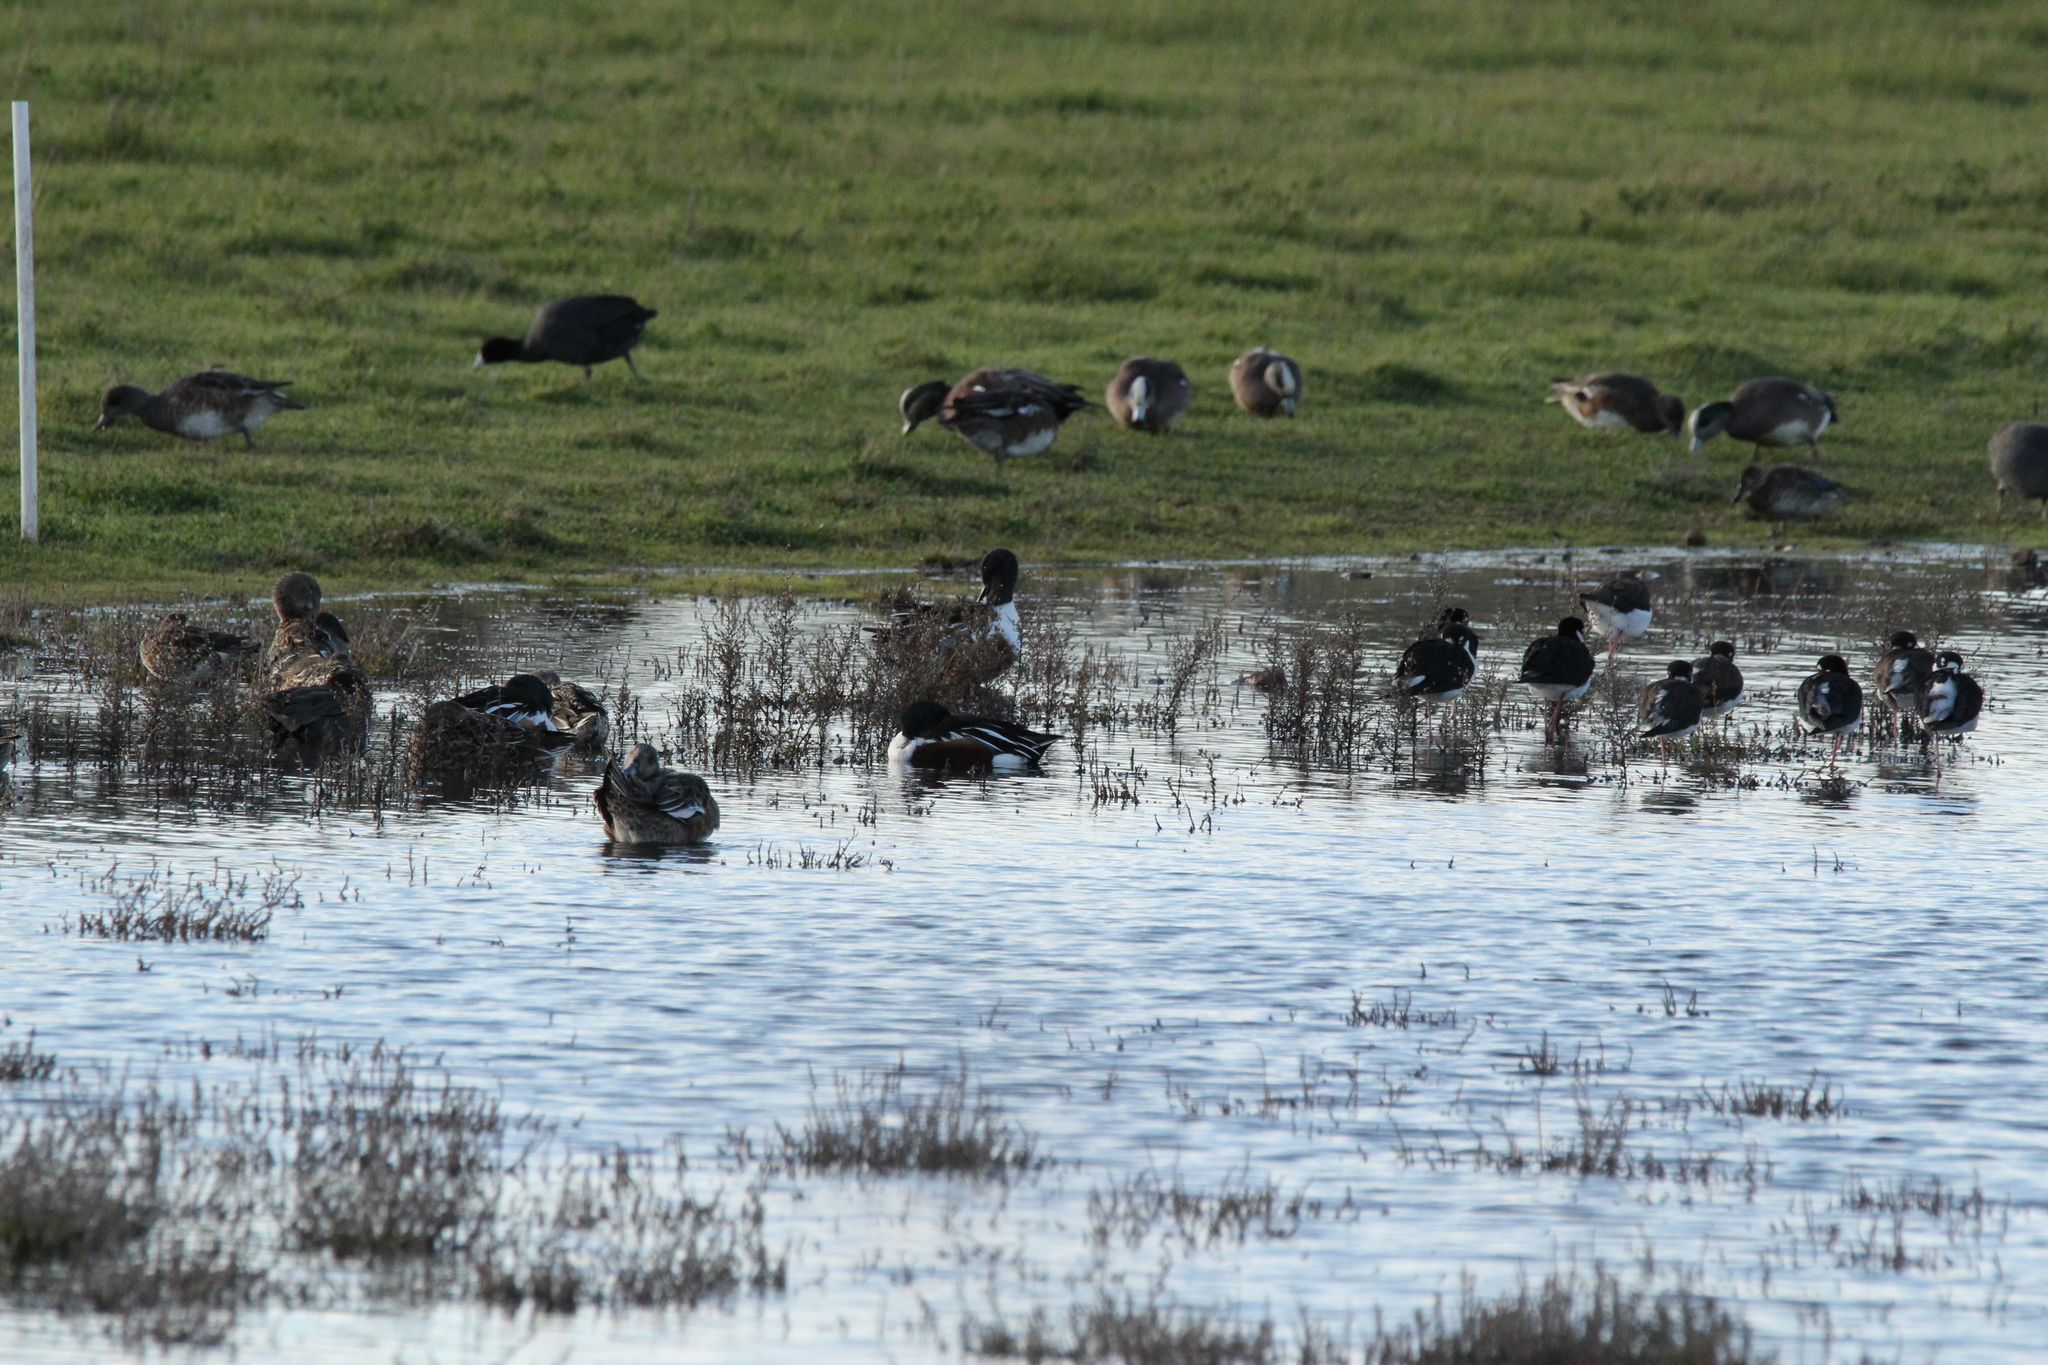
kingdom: Animalia
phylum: Chordata
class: Aves
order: Anseriformes
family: Anatidae
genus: Spatula
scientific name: Spatula clypeata
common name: Northern shoveler
